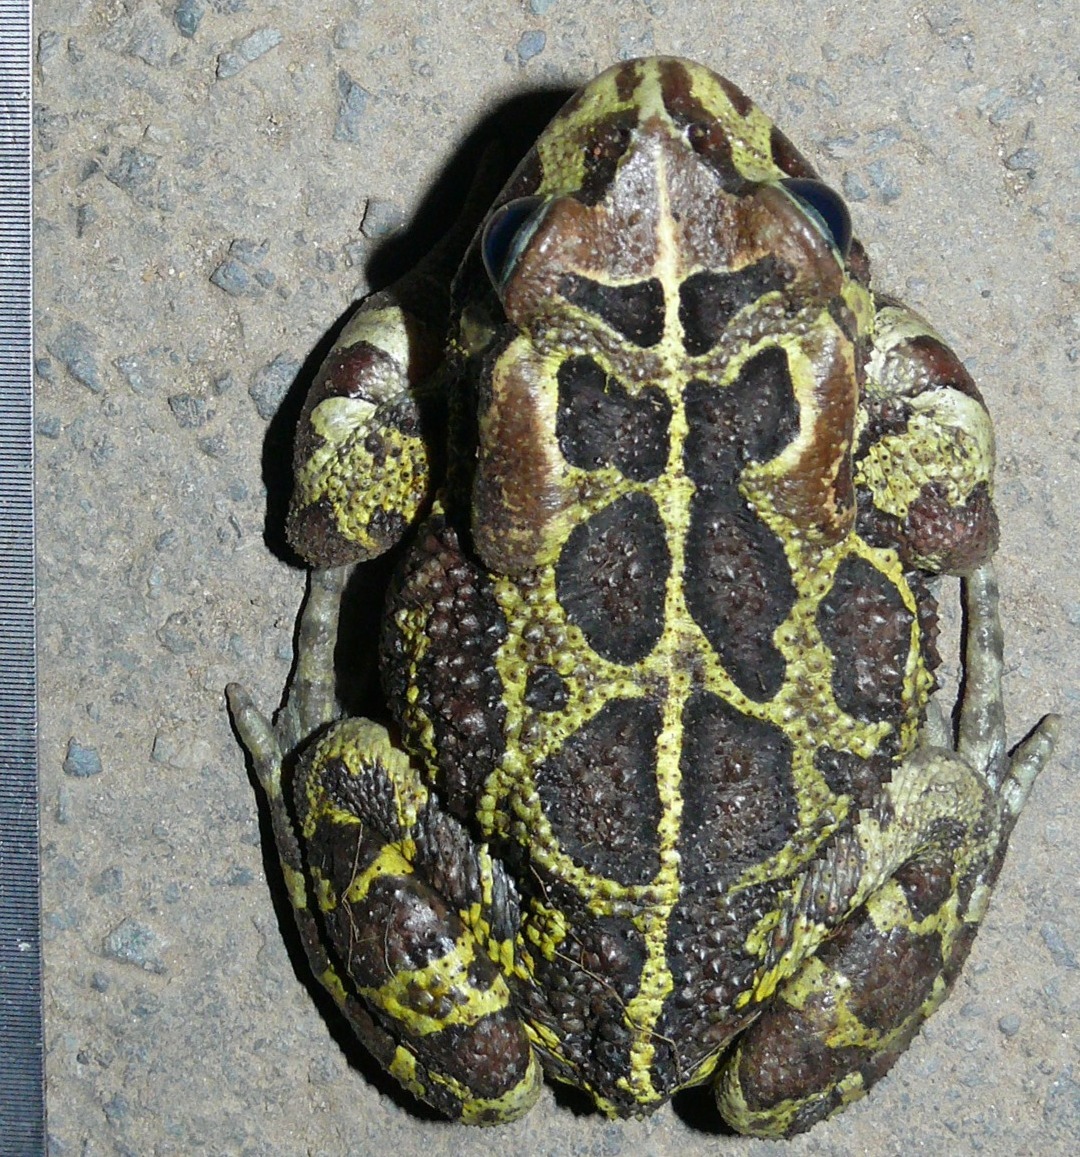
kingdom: Animalia
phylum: Chordata
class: Amphibia
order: Anura
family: Bufonidae
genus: Sclerophrys
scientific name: Sclerophrys pantherina
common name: Panther toad
